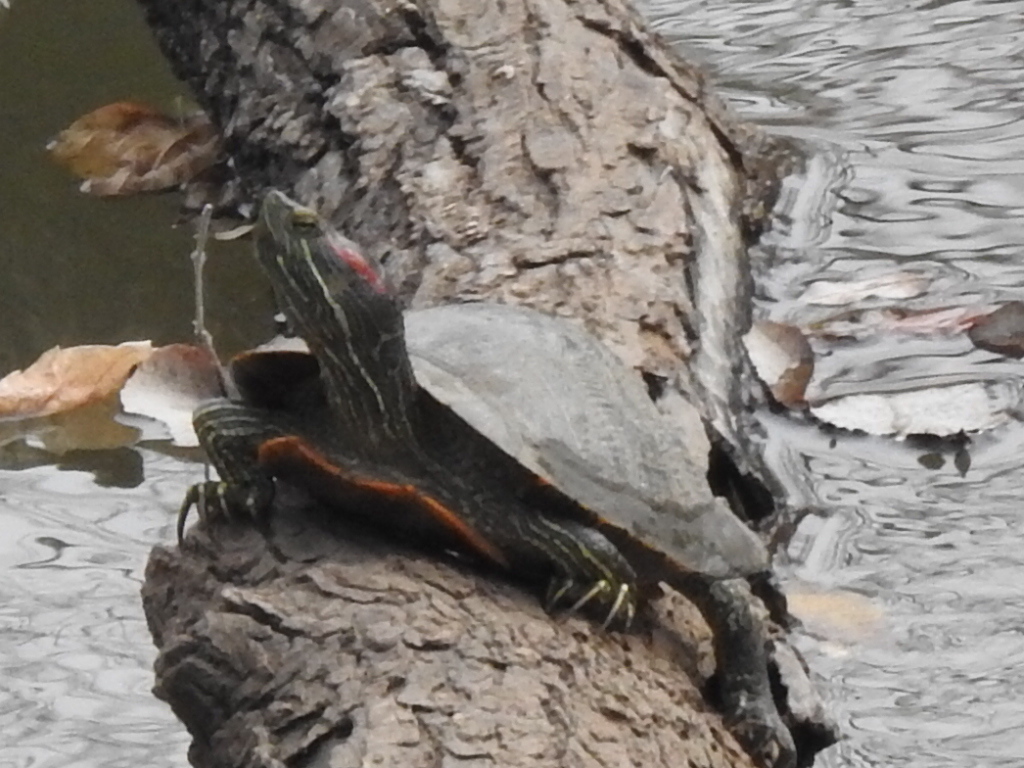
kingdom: Animalia
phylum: Chordata
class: Testudines
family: Emydidae
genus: Trachemys
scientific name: Trachemys scripta
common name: Slider
